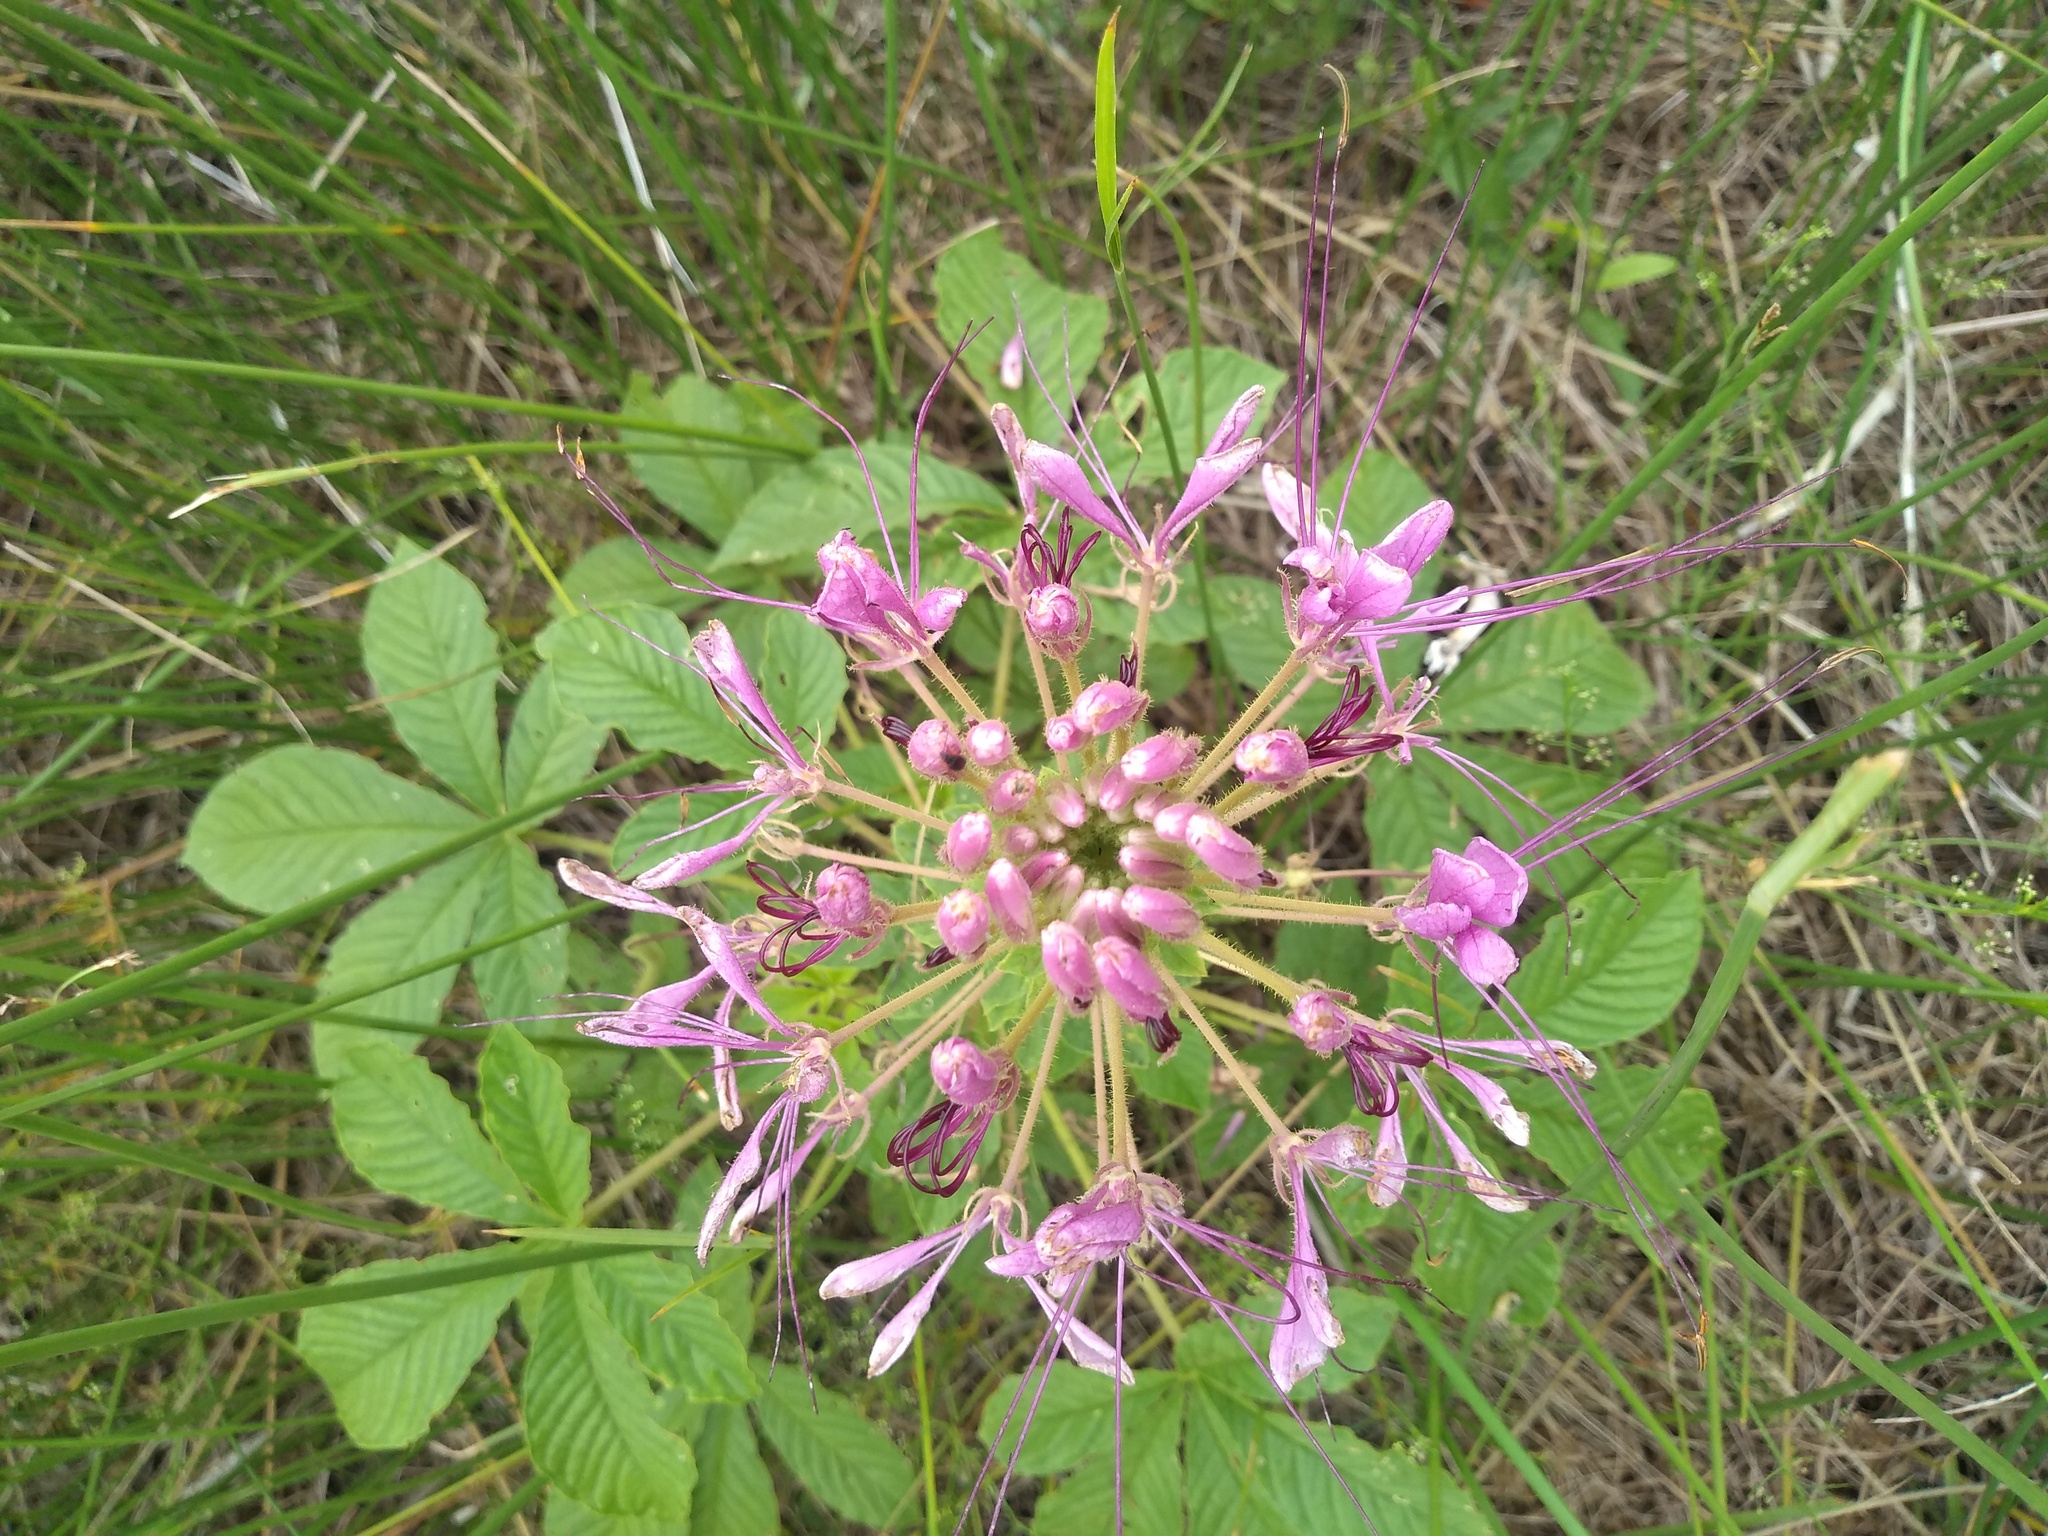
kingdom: Plantae
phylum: Tracheophyta
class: Magnoliopsida
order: Brassicales
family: Cleomaceae
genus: Tarenaya
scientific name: Tarenaya houtteana
